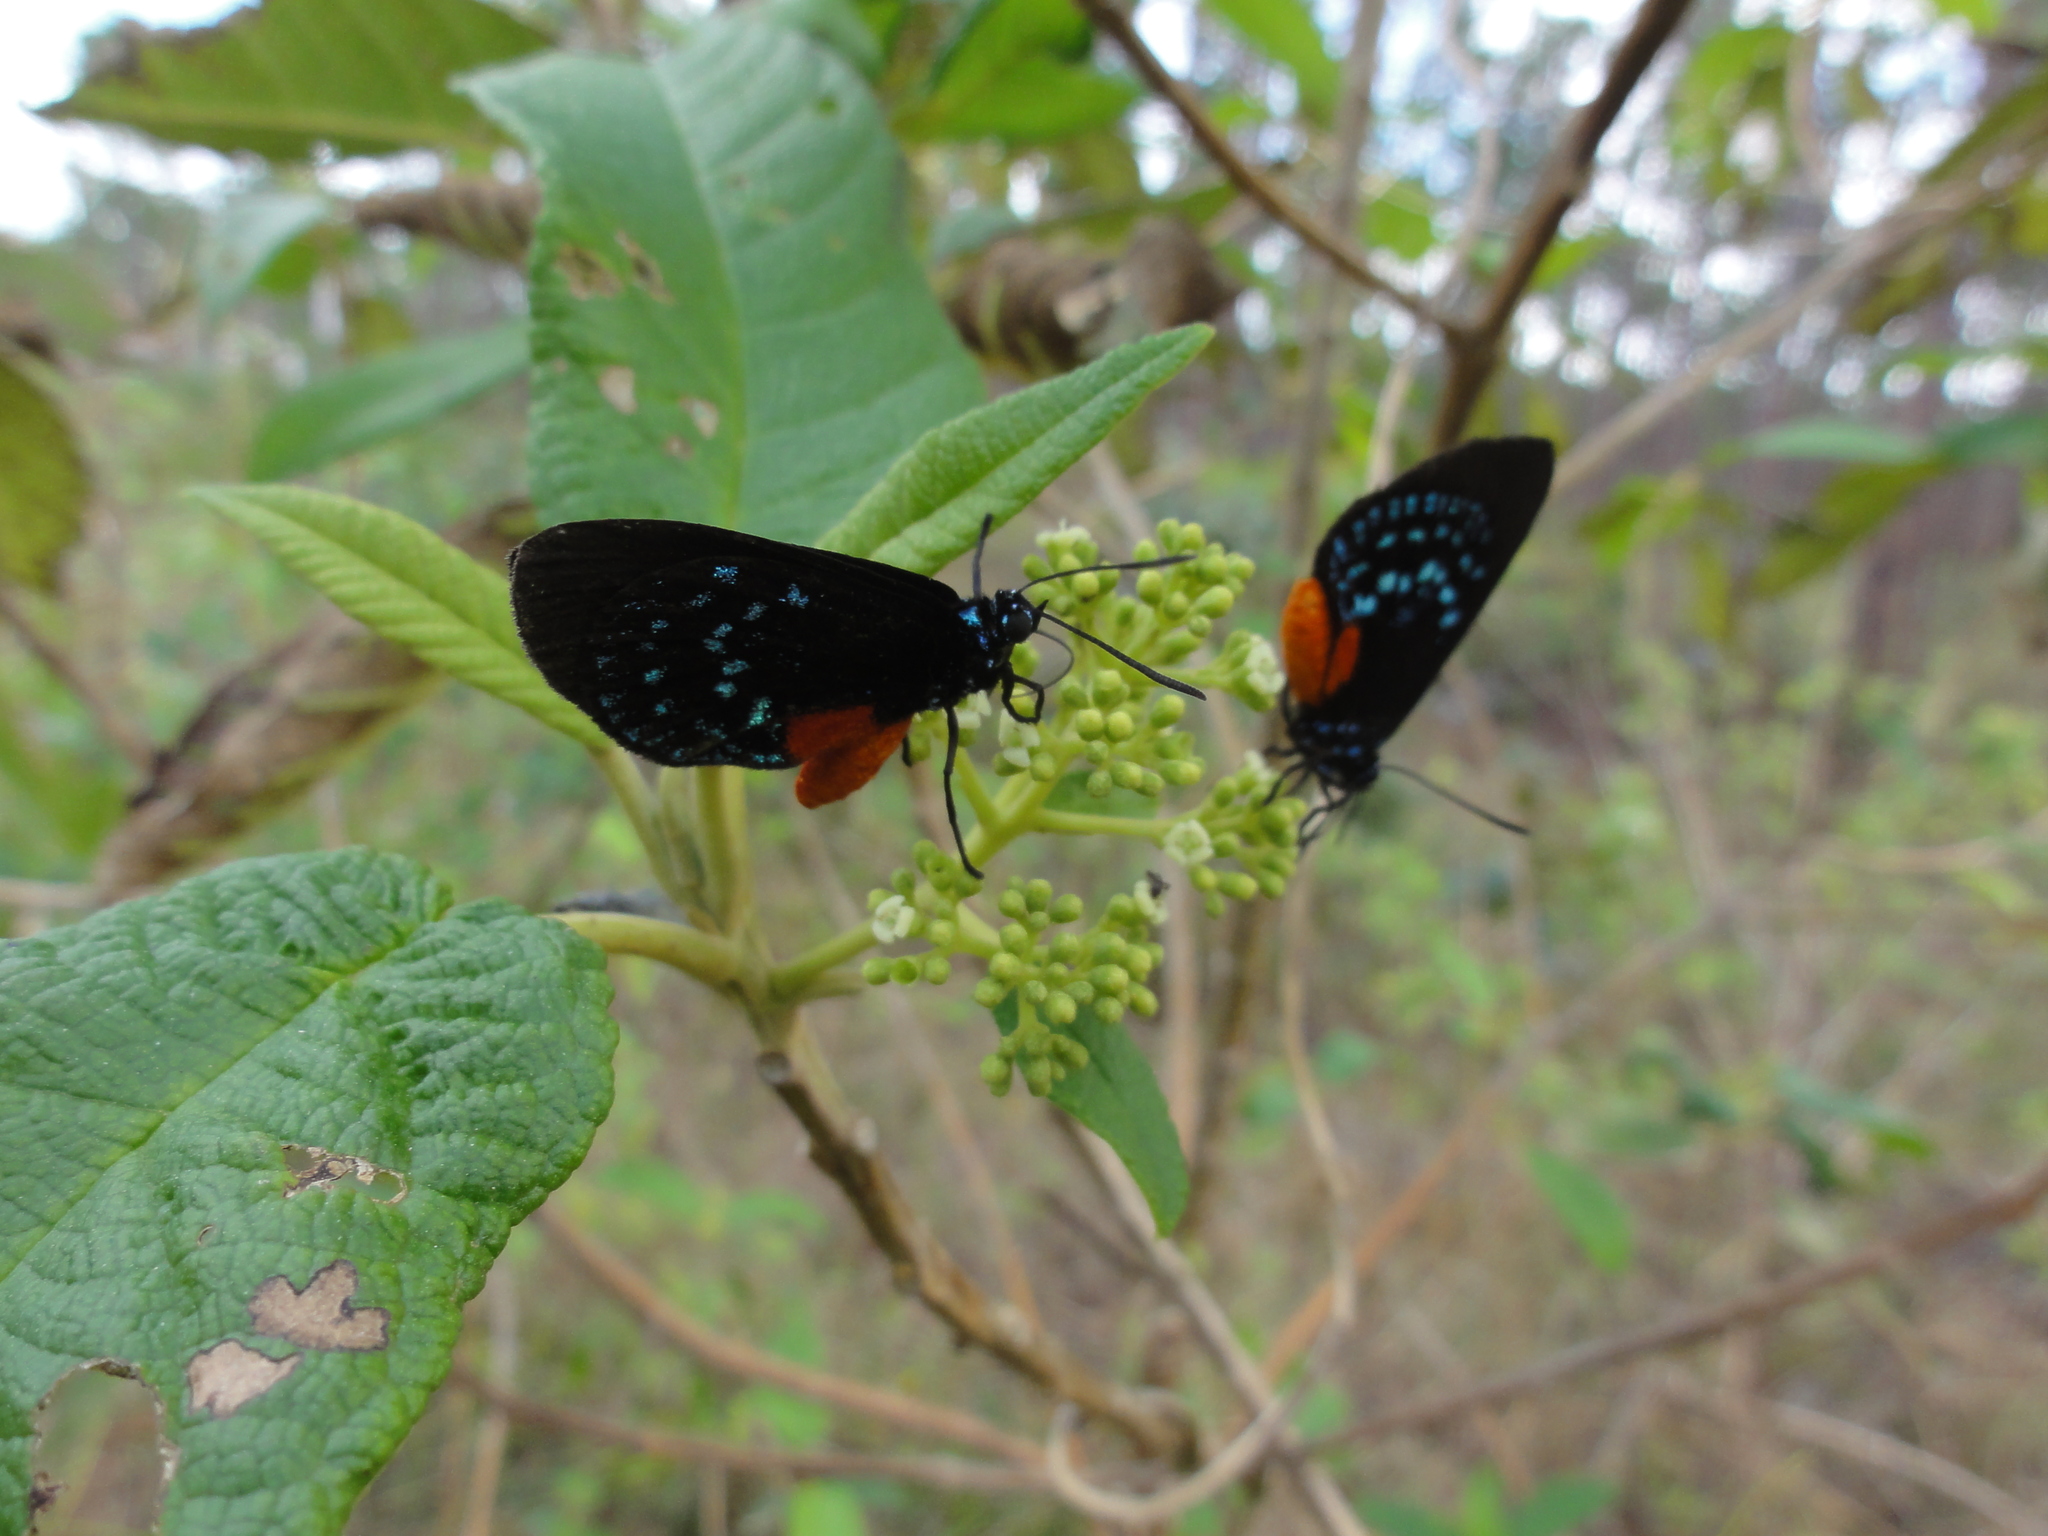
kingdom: Animalia
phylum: Arthropoda
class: Insecta
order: Lepidoptera
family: Lycaenidae
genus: Eumaeus
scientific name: Eumaeus atala
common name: Atala
